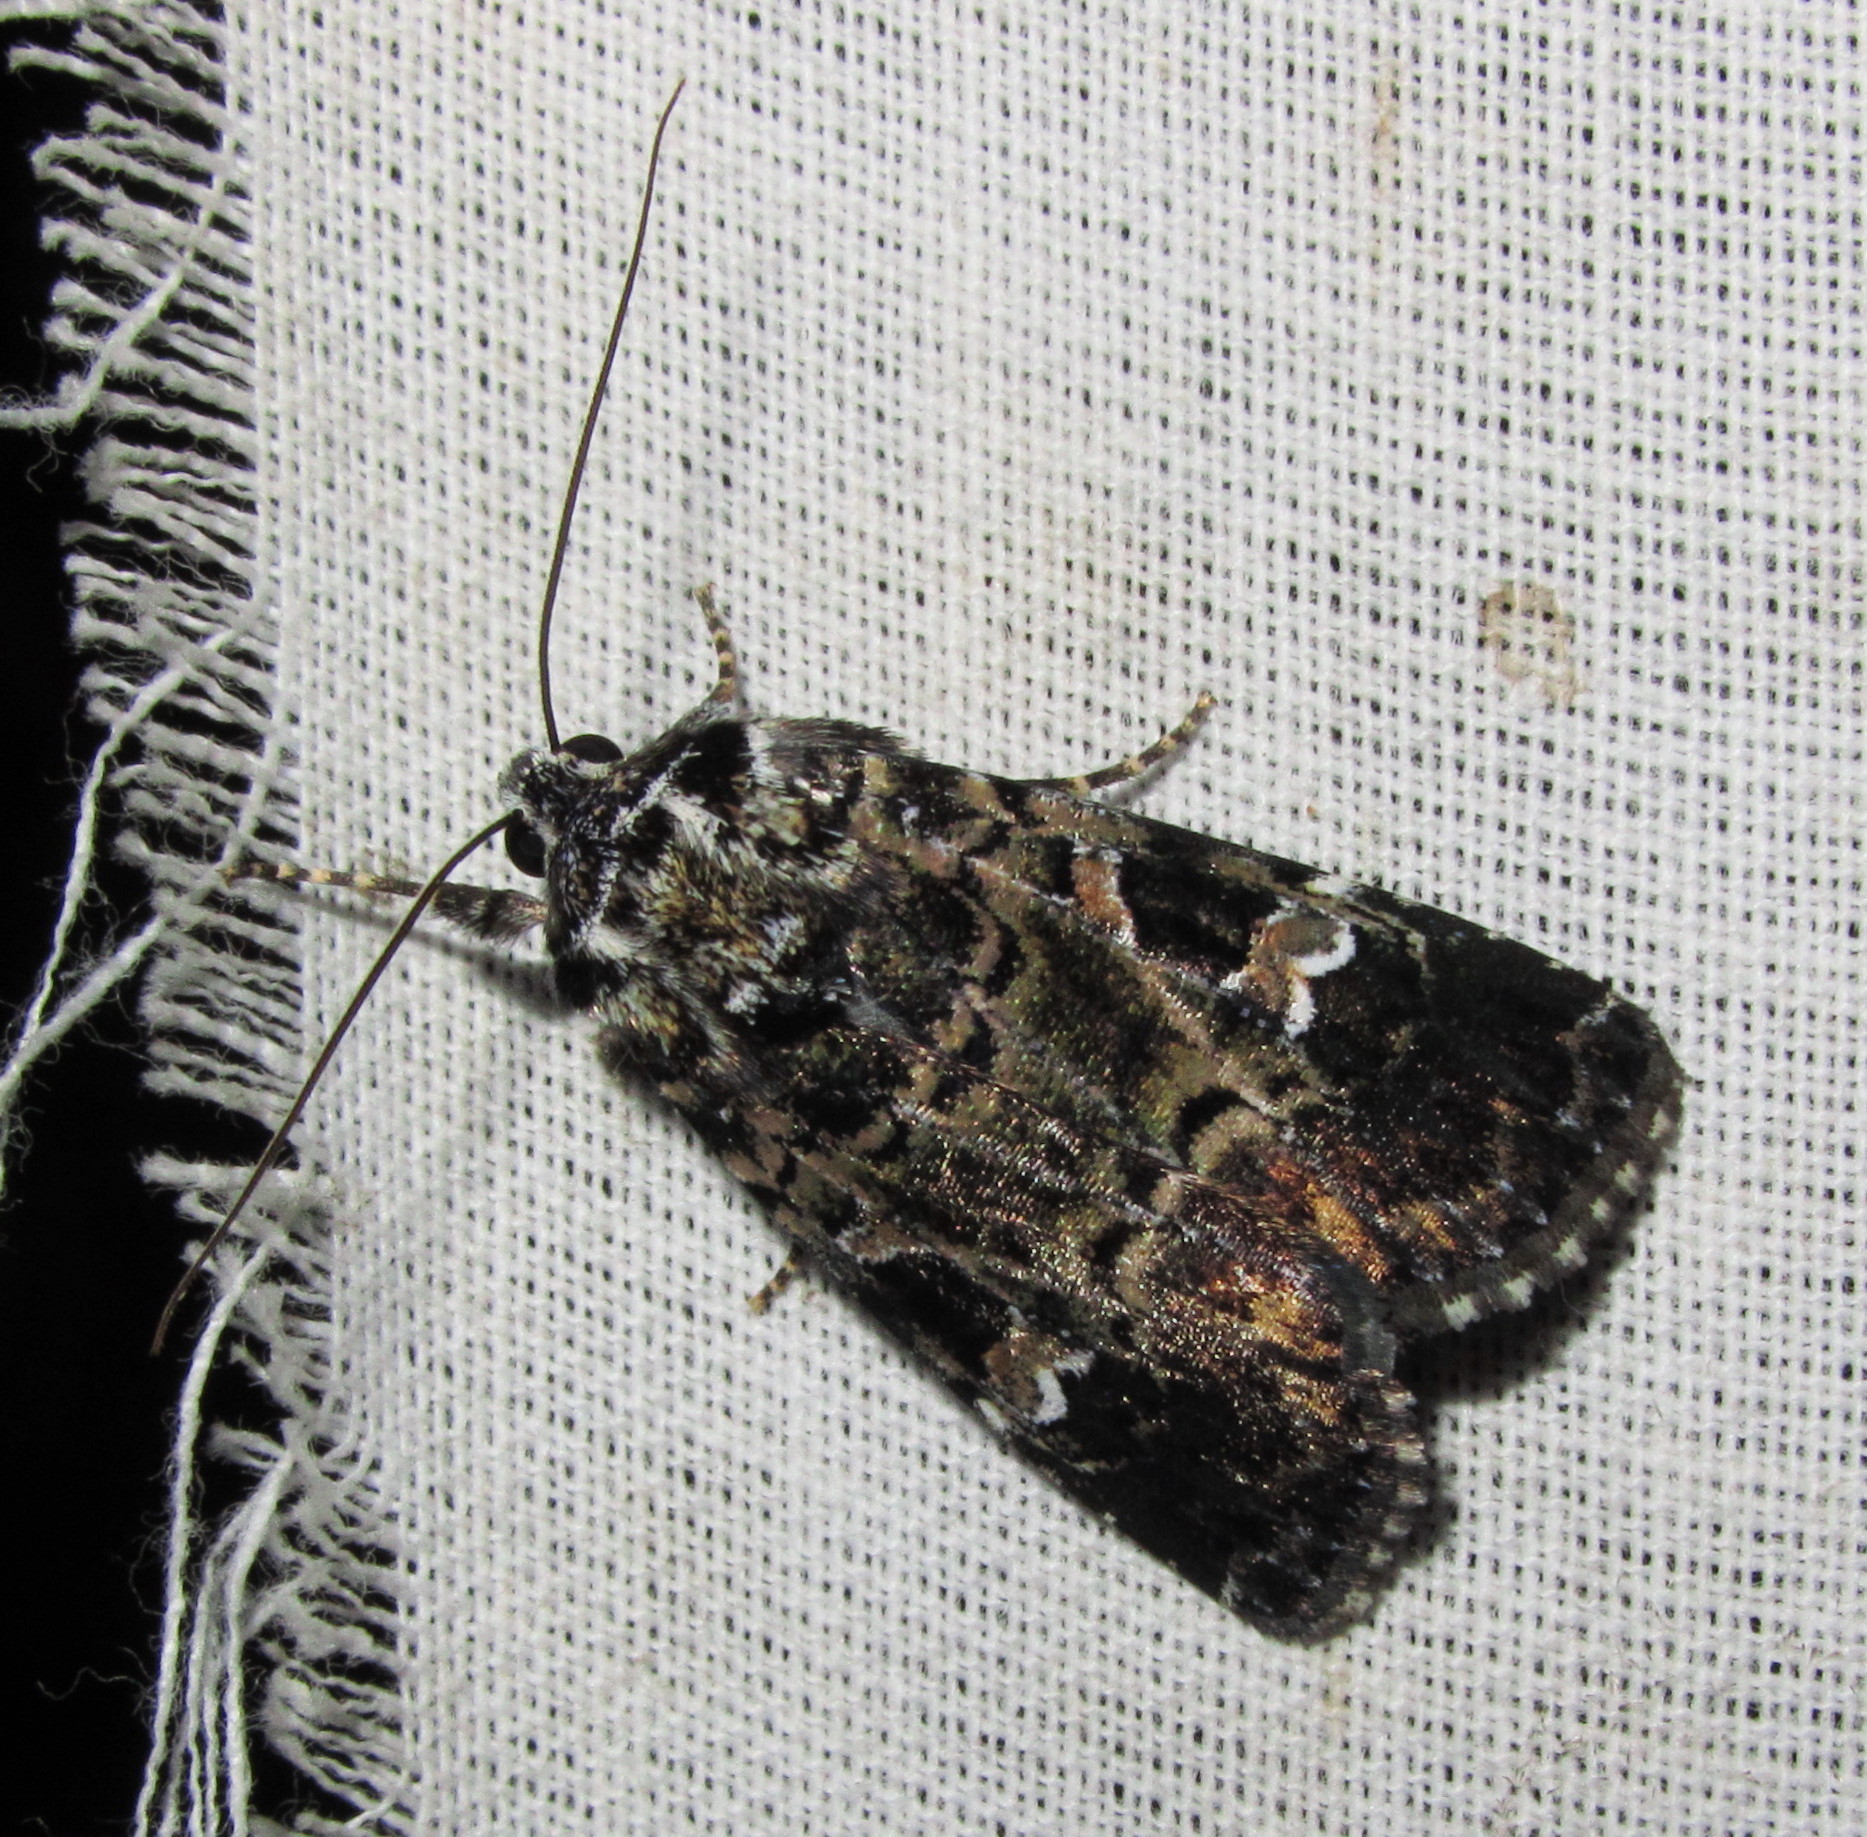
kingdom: Animalia
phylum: Arthropoda
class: Insecta
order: Lepidoptera
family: Noctuidae
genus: Neurois
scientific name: Neurois atrovirens
